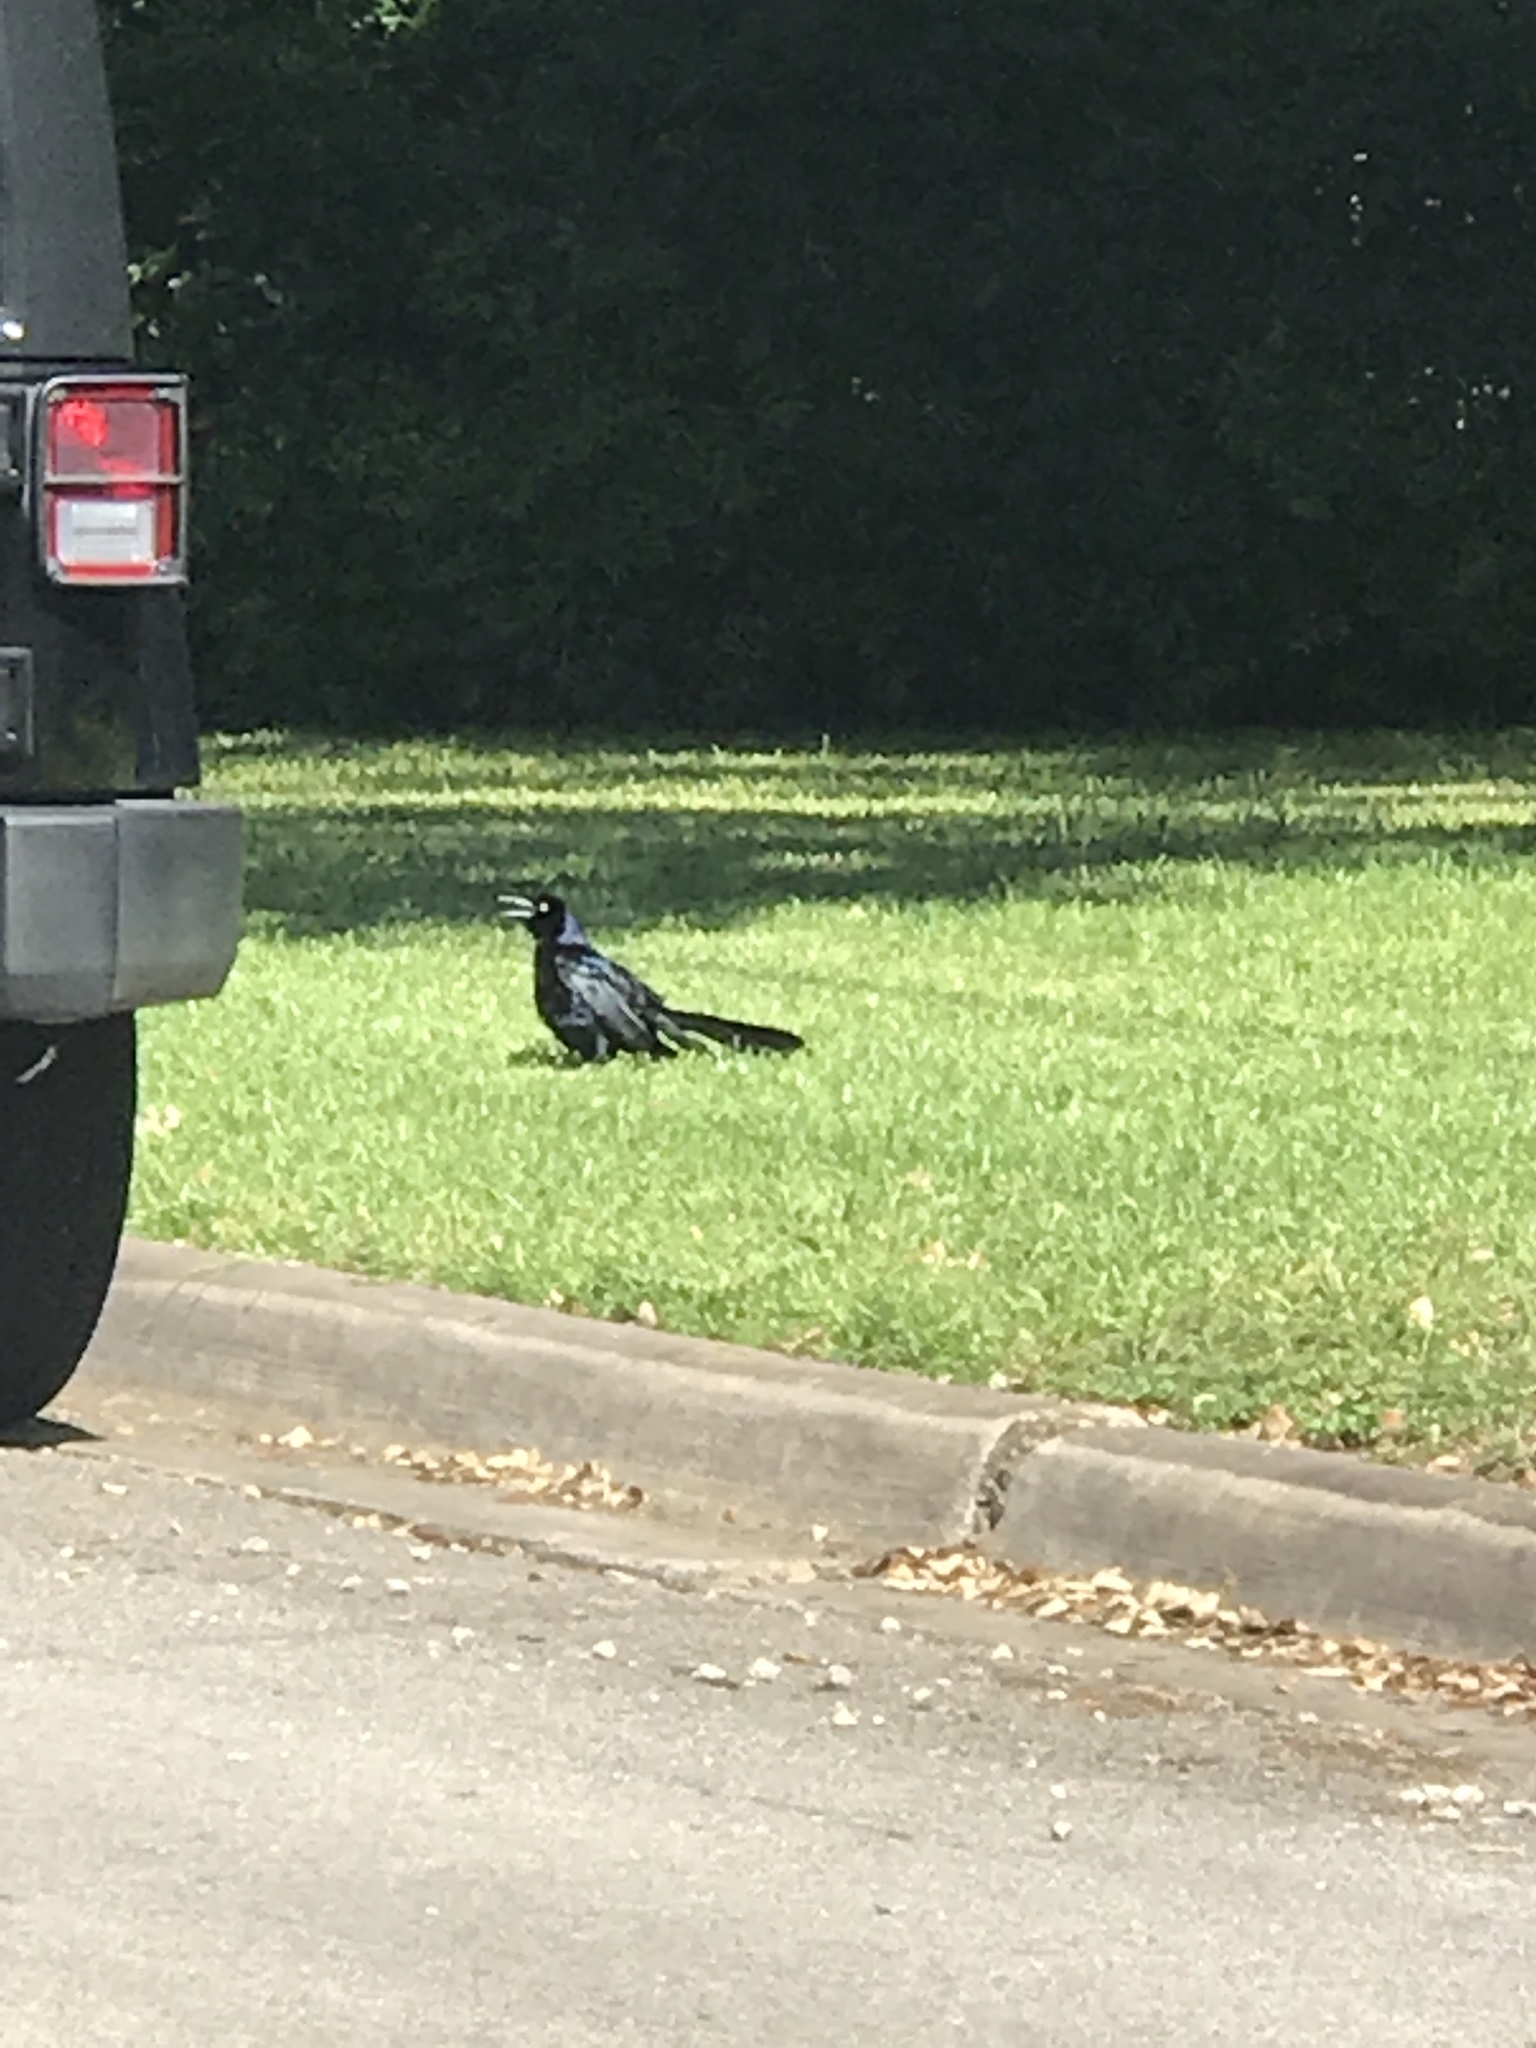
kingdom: Animalia
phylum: Chordata
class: Aves
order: Passeriformes
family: Icteridae
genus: Quiscalus
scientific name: Quiscalus mexicanus
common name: Great-tailed grackle
